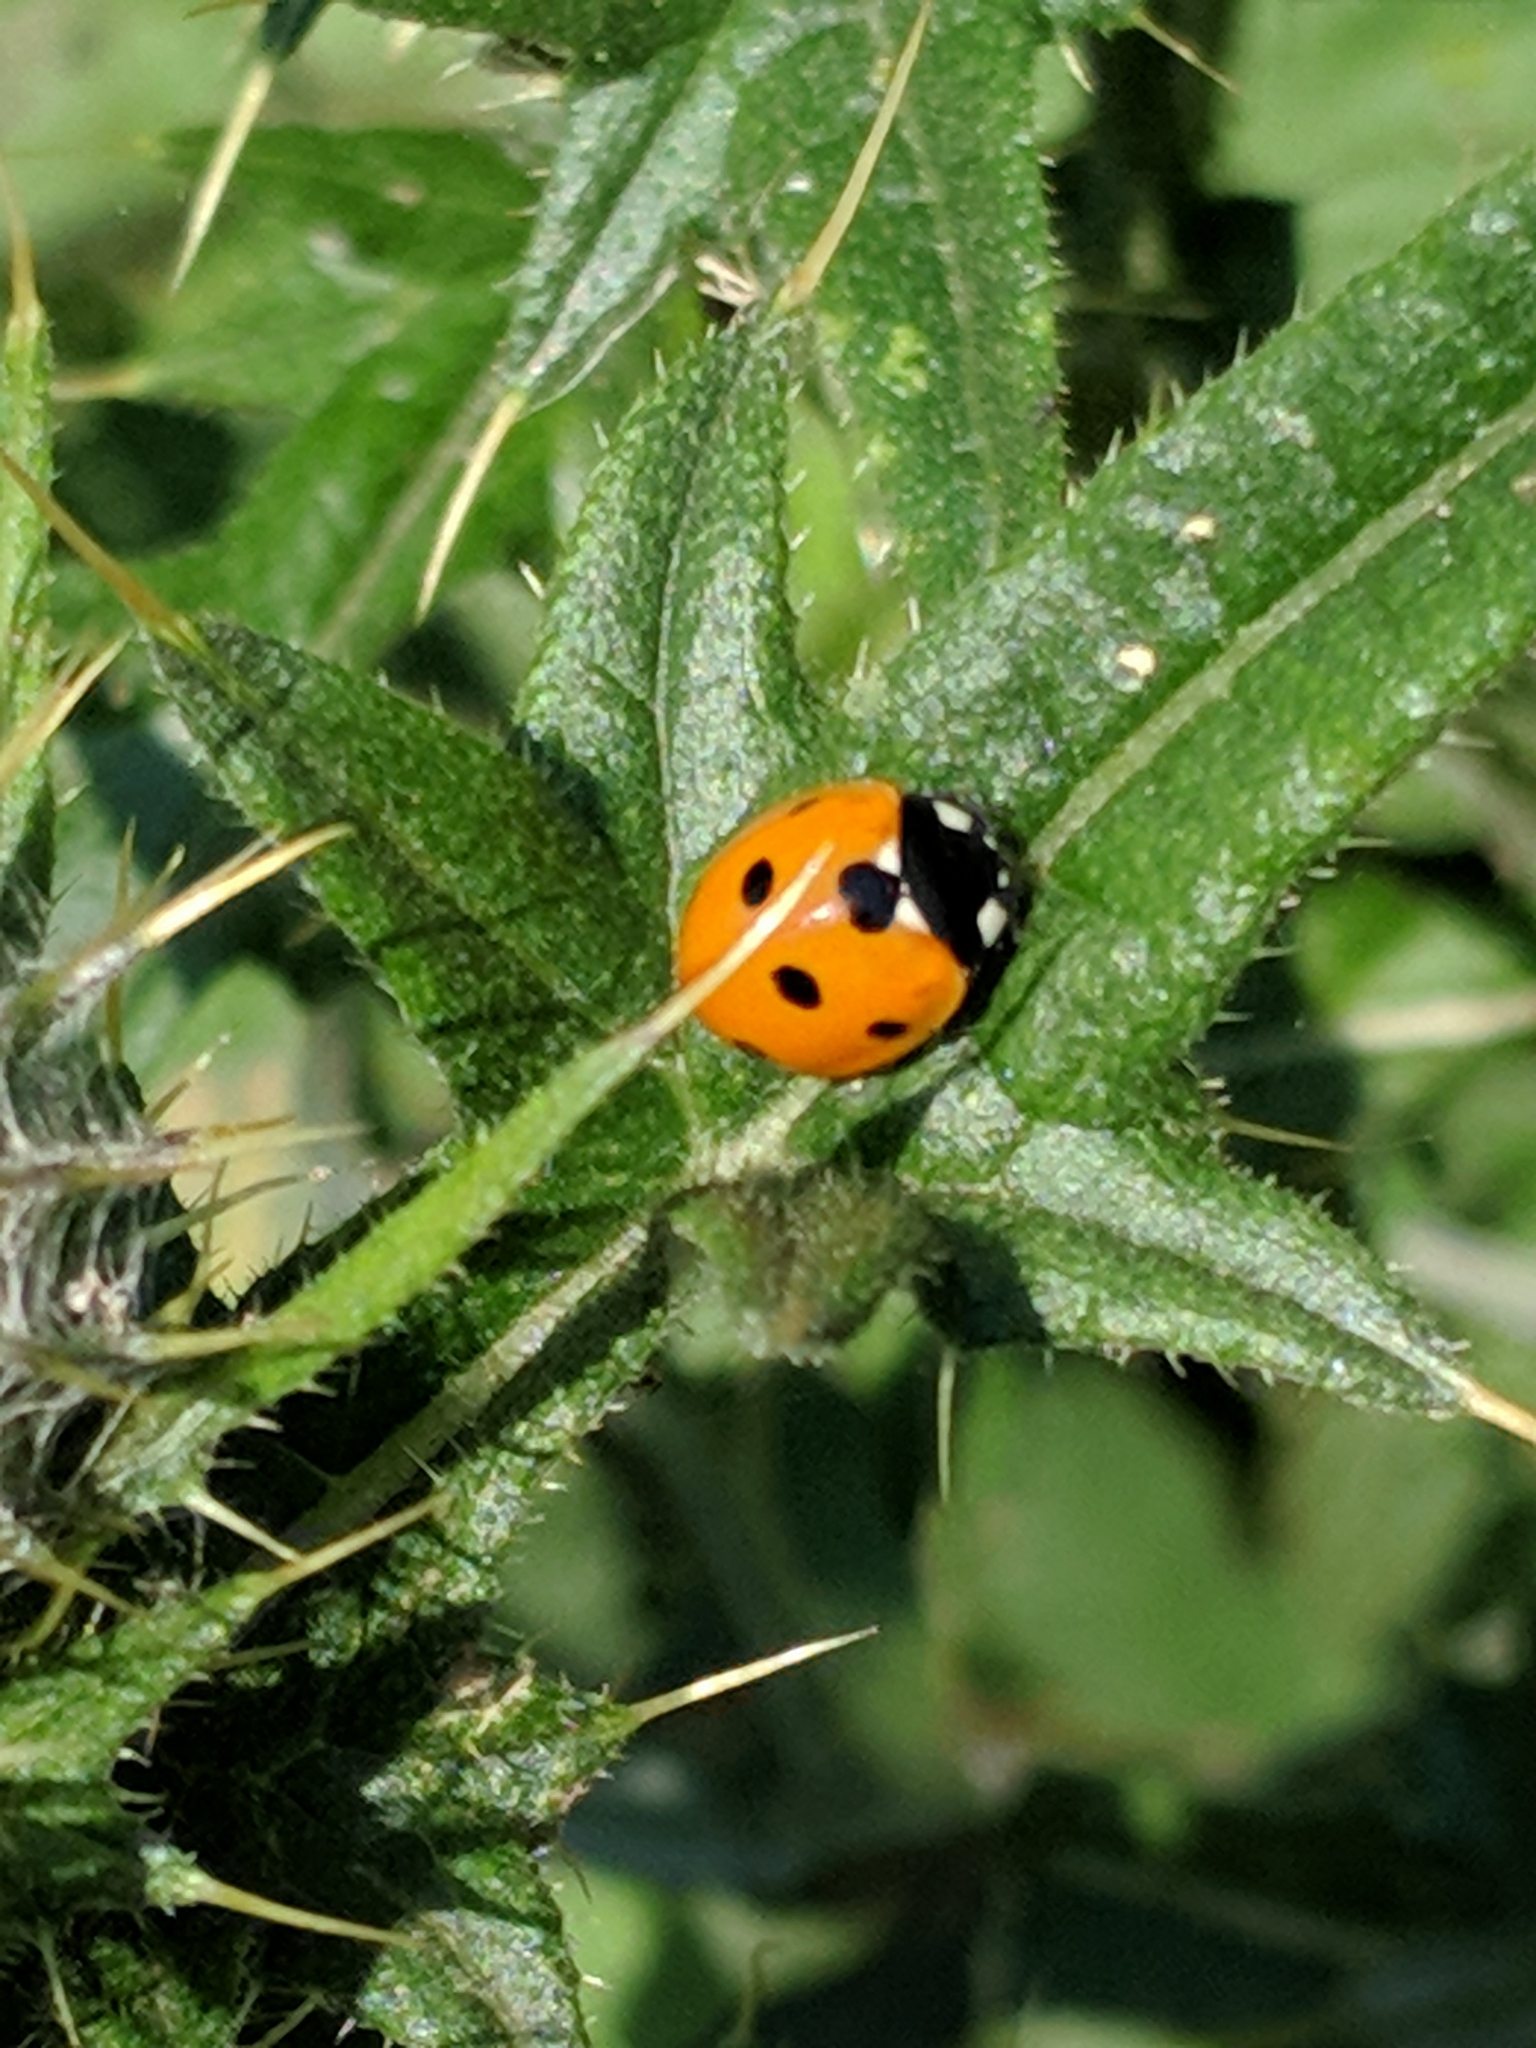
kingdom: Animalia
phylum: Arthropoda
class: Insecta
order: Coleoptera
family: Coccinellidae
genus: Coccinella
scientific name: Coccinella septempunctata
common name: Sevenspotted lady beetle
